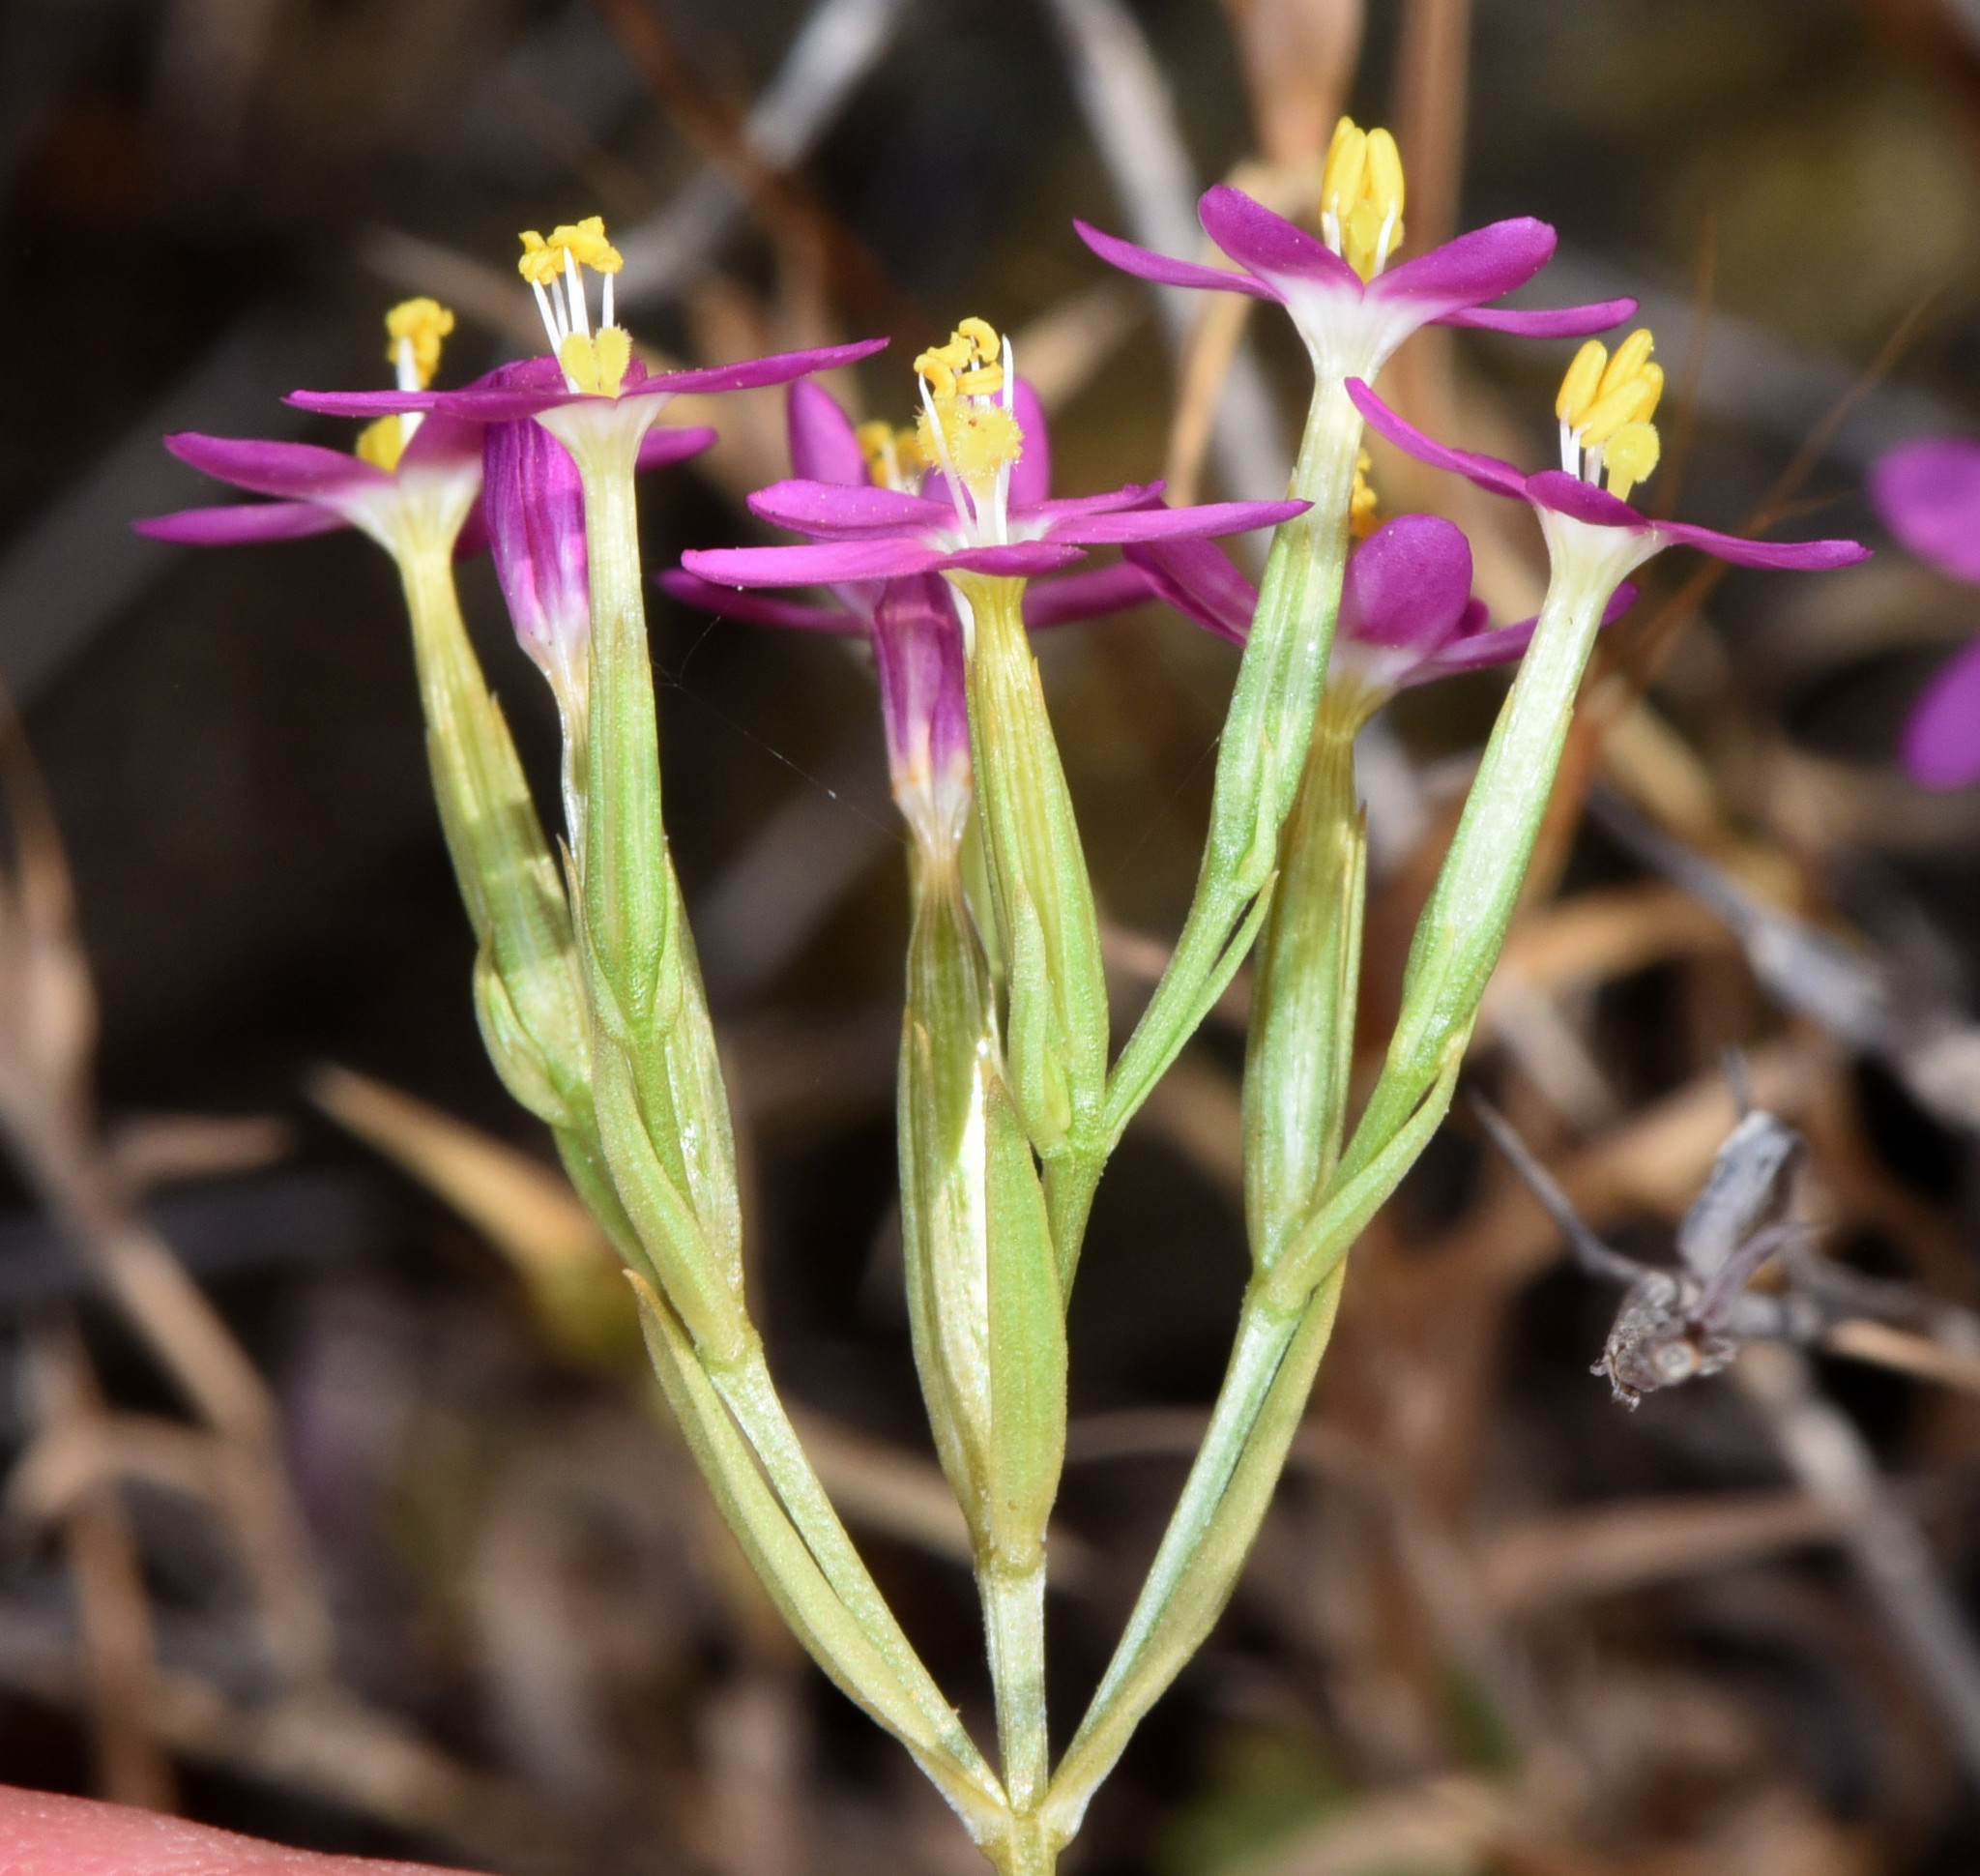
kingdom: Plantae
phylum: Tracheophyta
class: Magnoliopsida
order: Gentianales
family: Gentianaceae
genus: Zeltnera
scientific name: Zeltnera muhlenbergii
